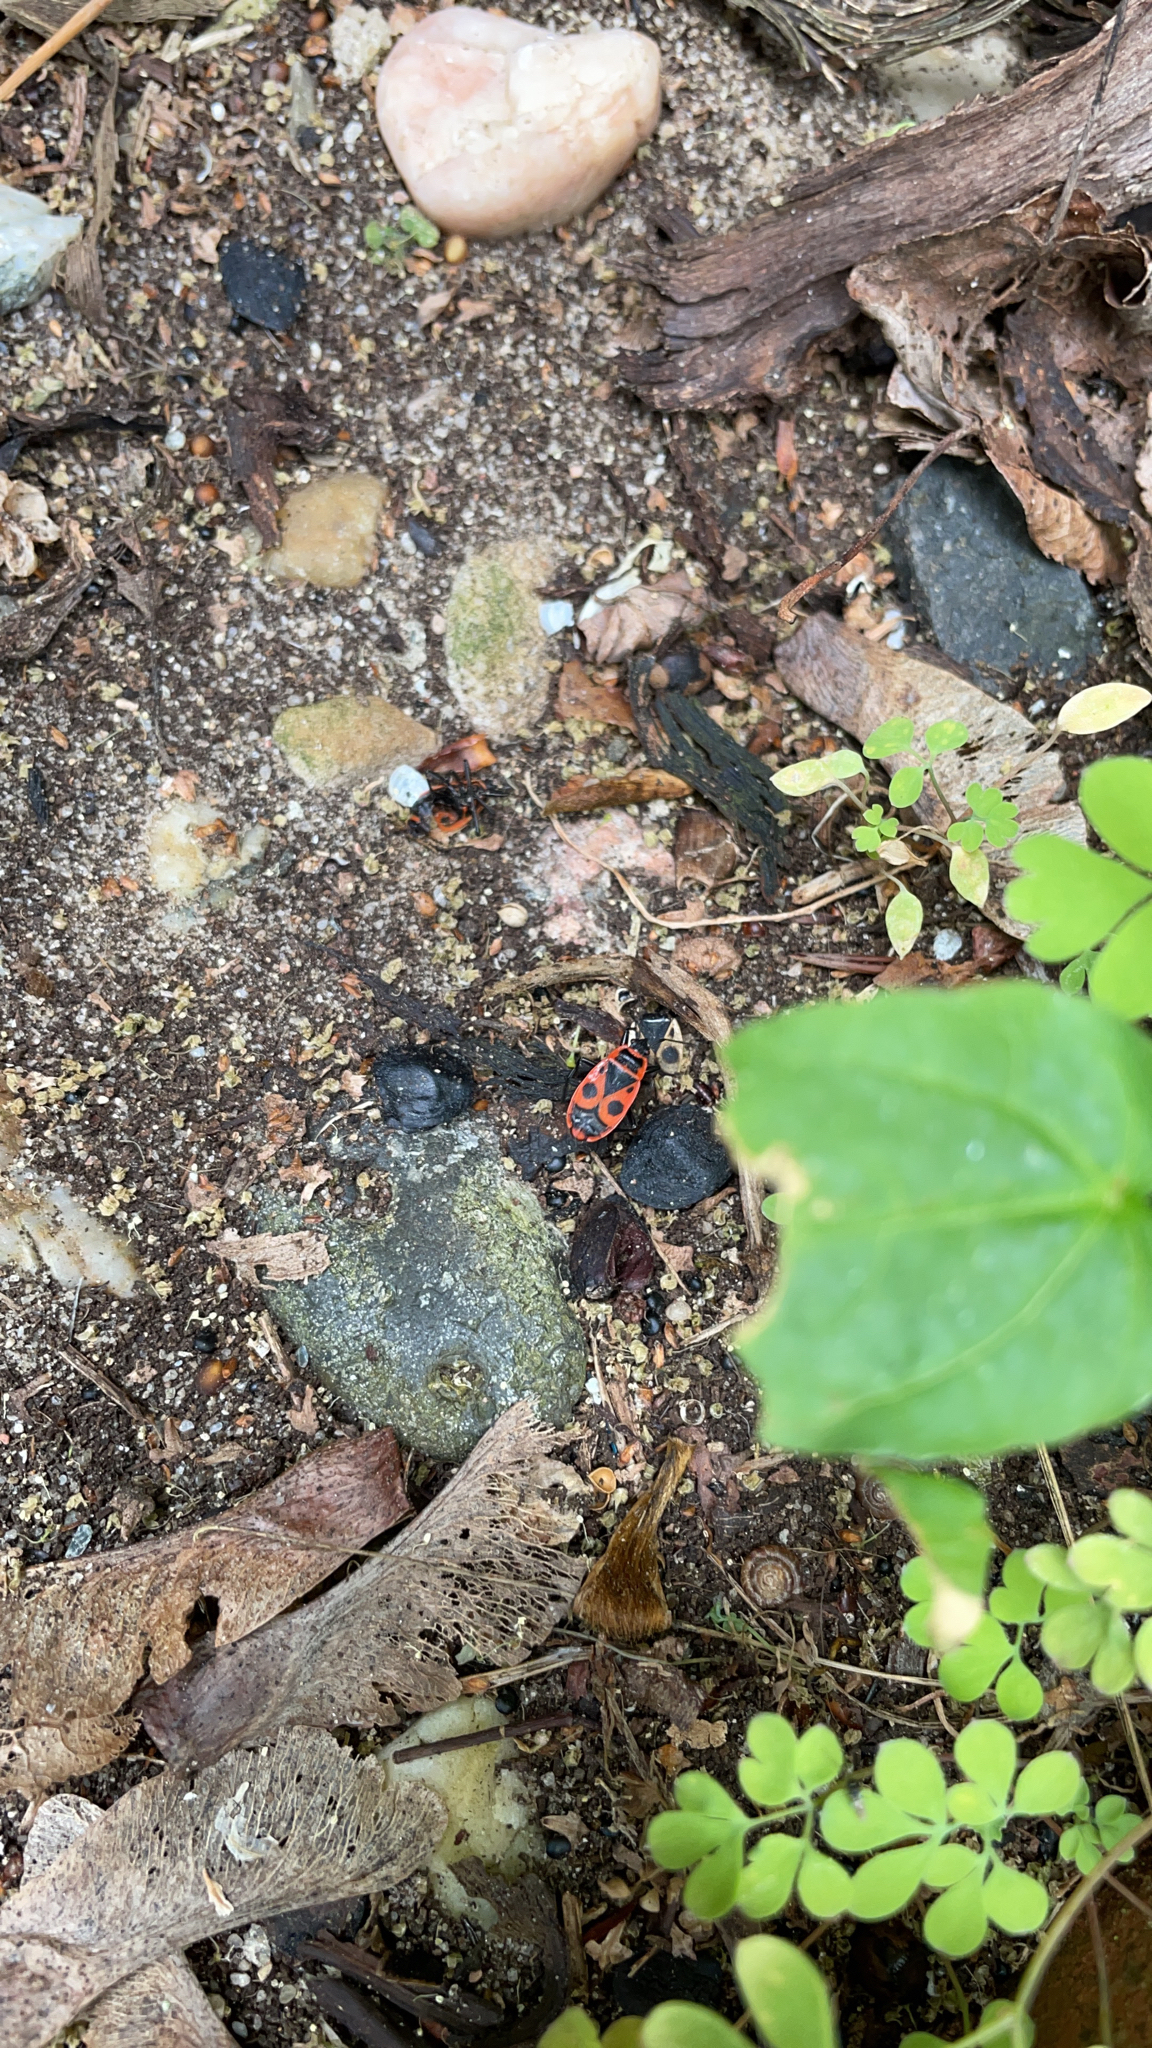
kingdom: Animalia
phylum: Arthropoda
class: Insecta
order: Hemiptera
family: Pyrrhocoridae
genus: Pyrrhocoris
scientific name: Pyrrhocoris apterus
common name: Firebug
